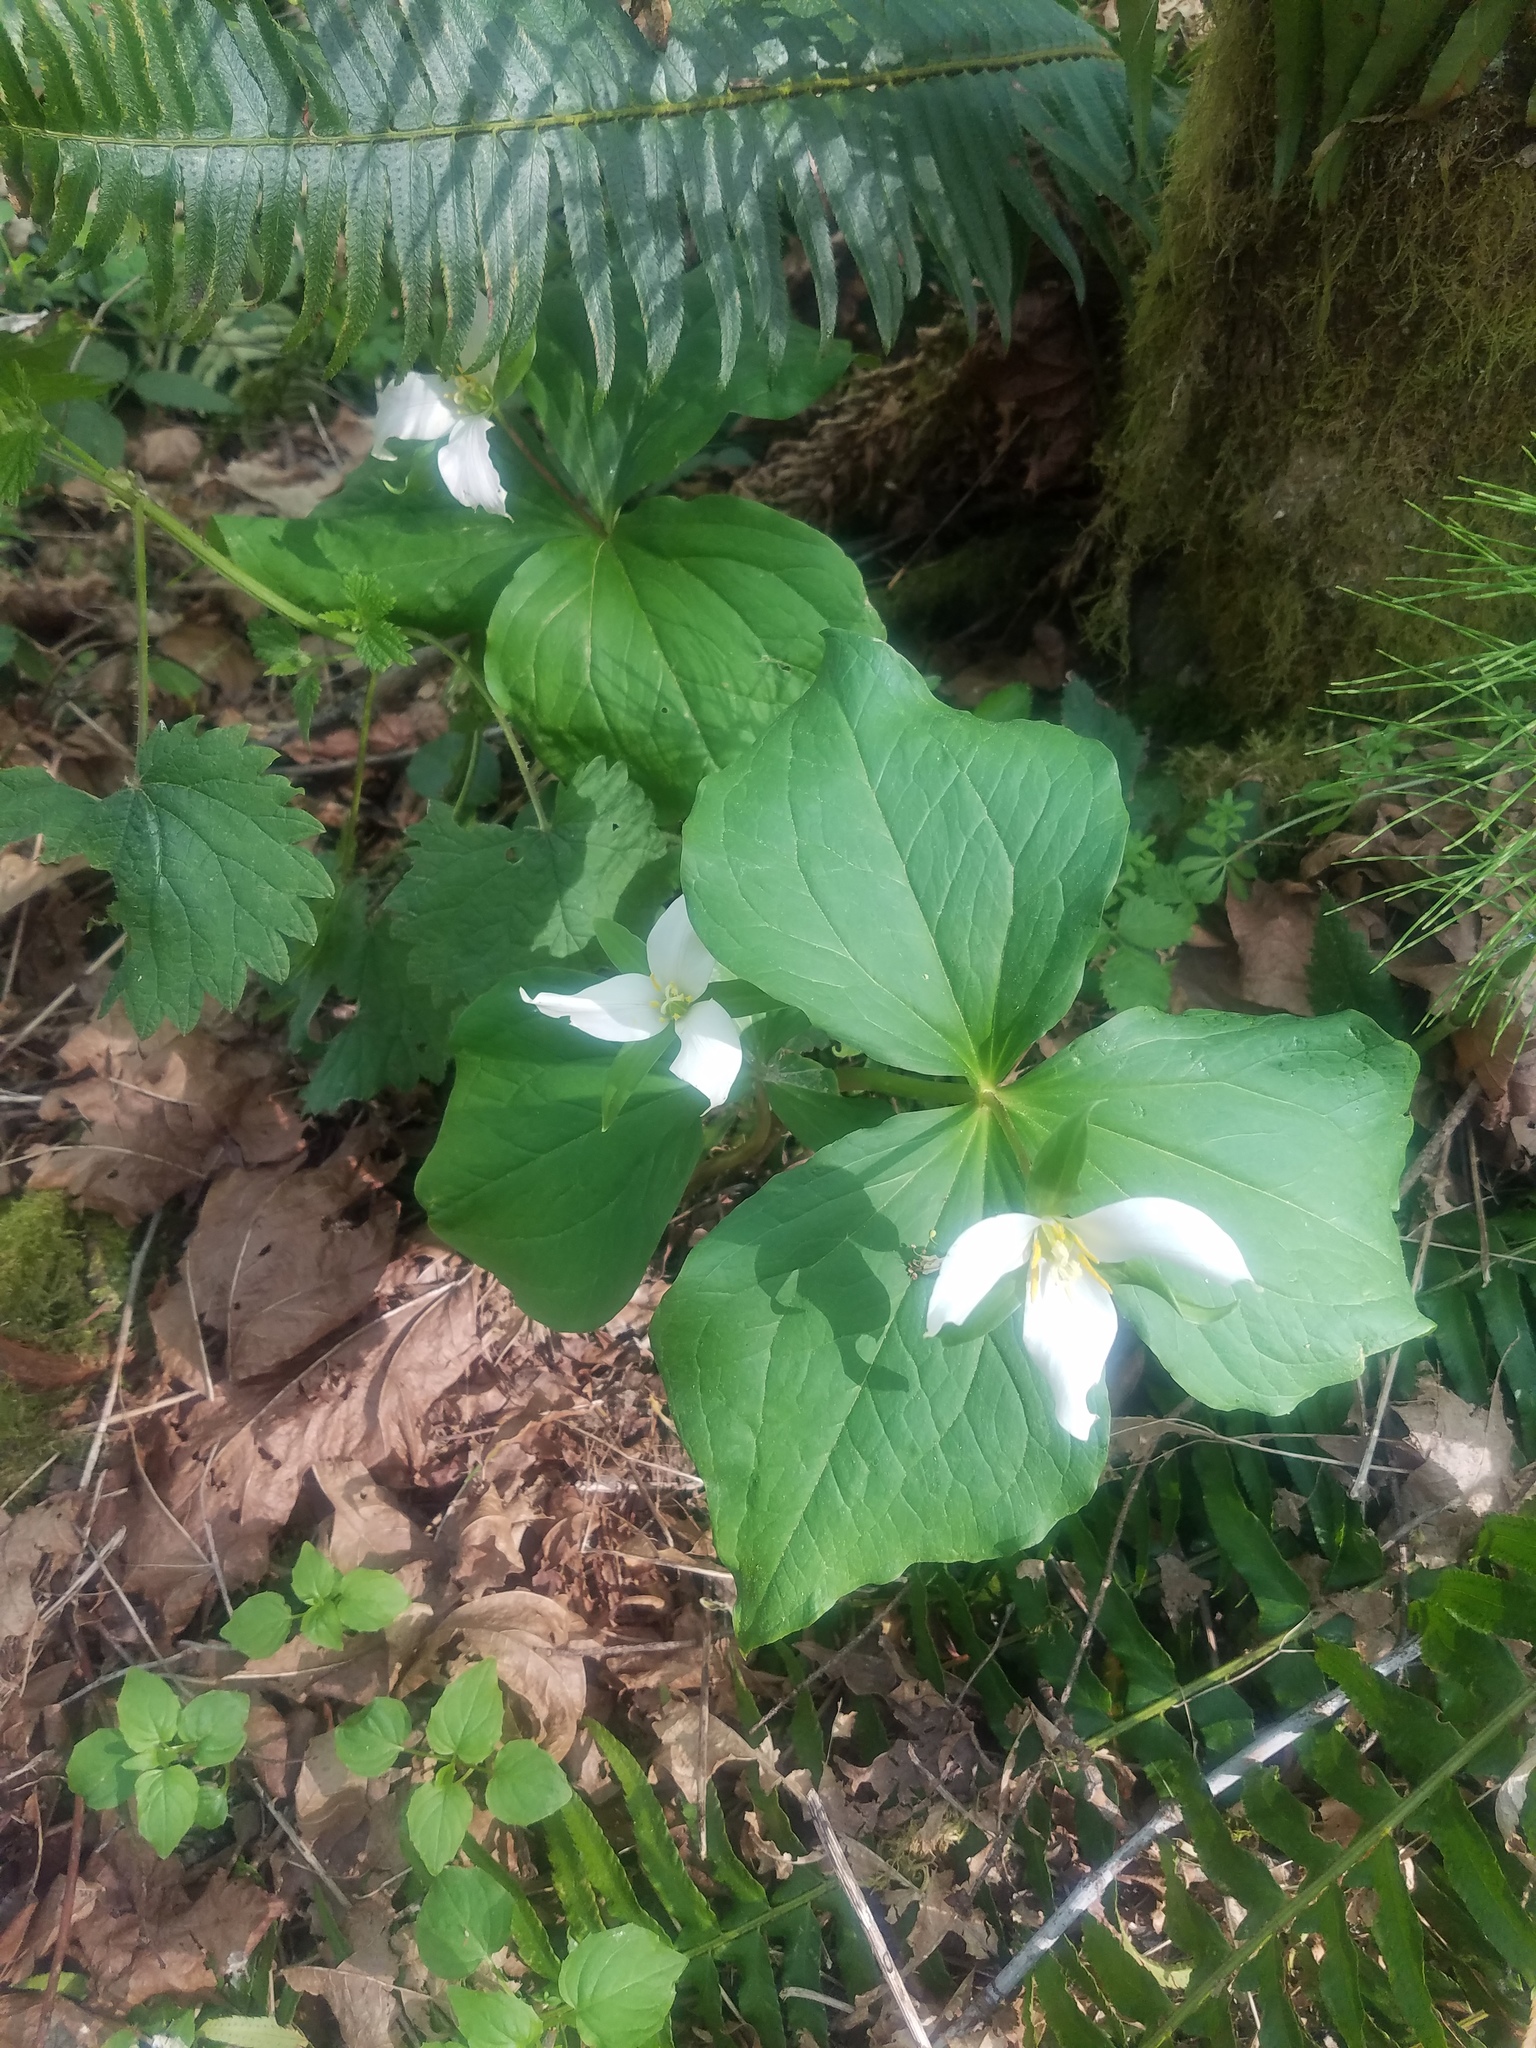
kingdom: Plantae
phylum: Tracheophyta
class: Liliopsida
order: Liliales
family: Melanthiaceae
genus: Trillium
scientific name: Trillium ovatum
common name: Pacific trillium
